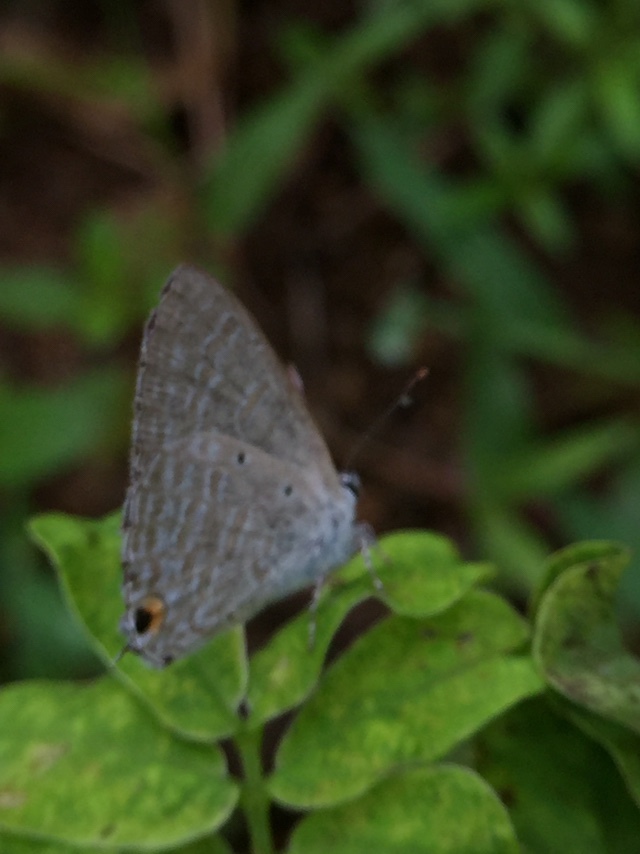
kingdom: Animalia
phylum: Arthropoda
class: Insecta
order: Lepidoptera
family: Lycaenidae
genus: Catochrysops
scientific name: Catochrysops strabo
